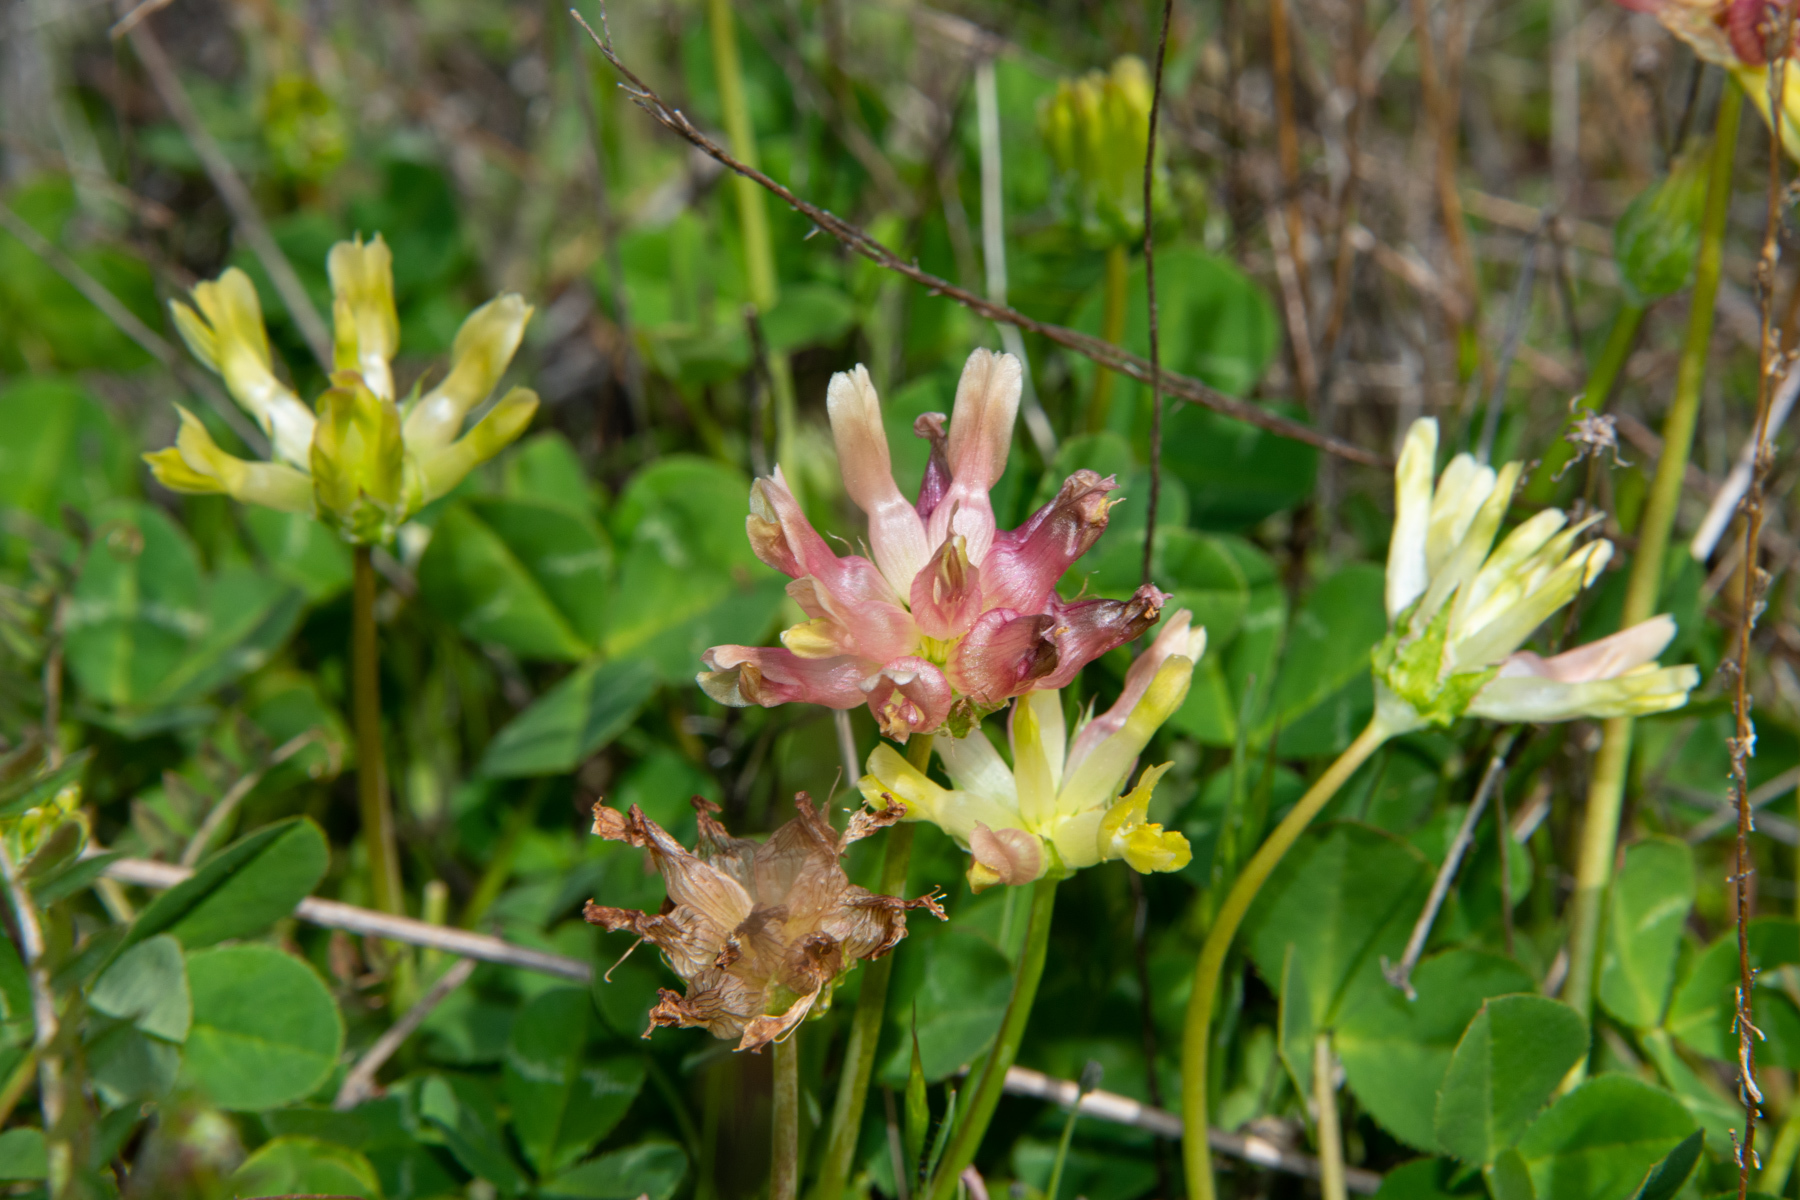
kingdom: Plantae
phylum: Tracheophyta
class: Magnoliopsida
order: Fabales
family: Fabaceae
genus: Trifolium
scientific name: Trifolium fucatum
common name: Puff clover
